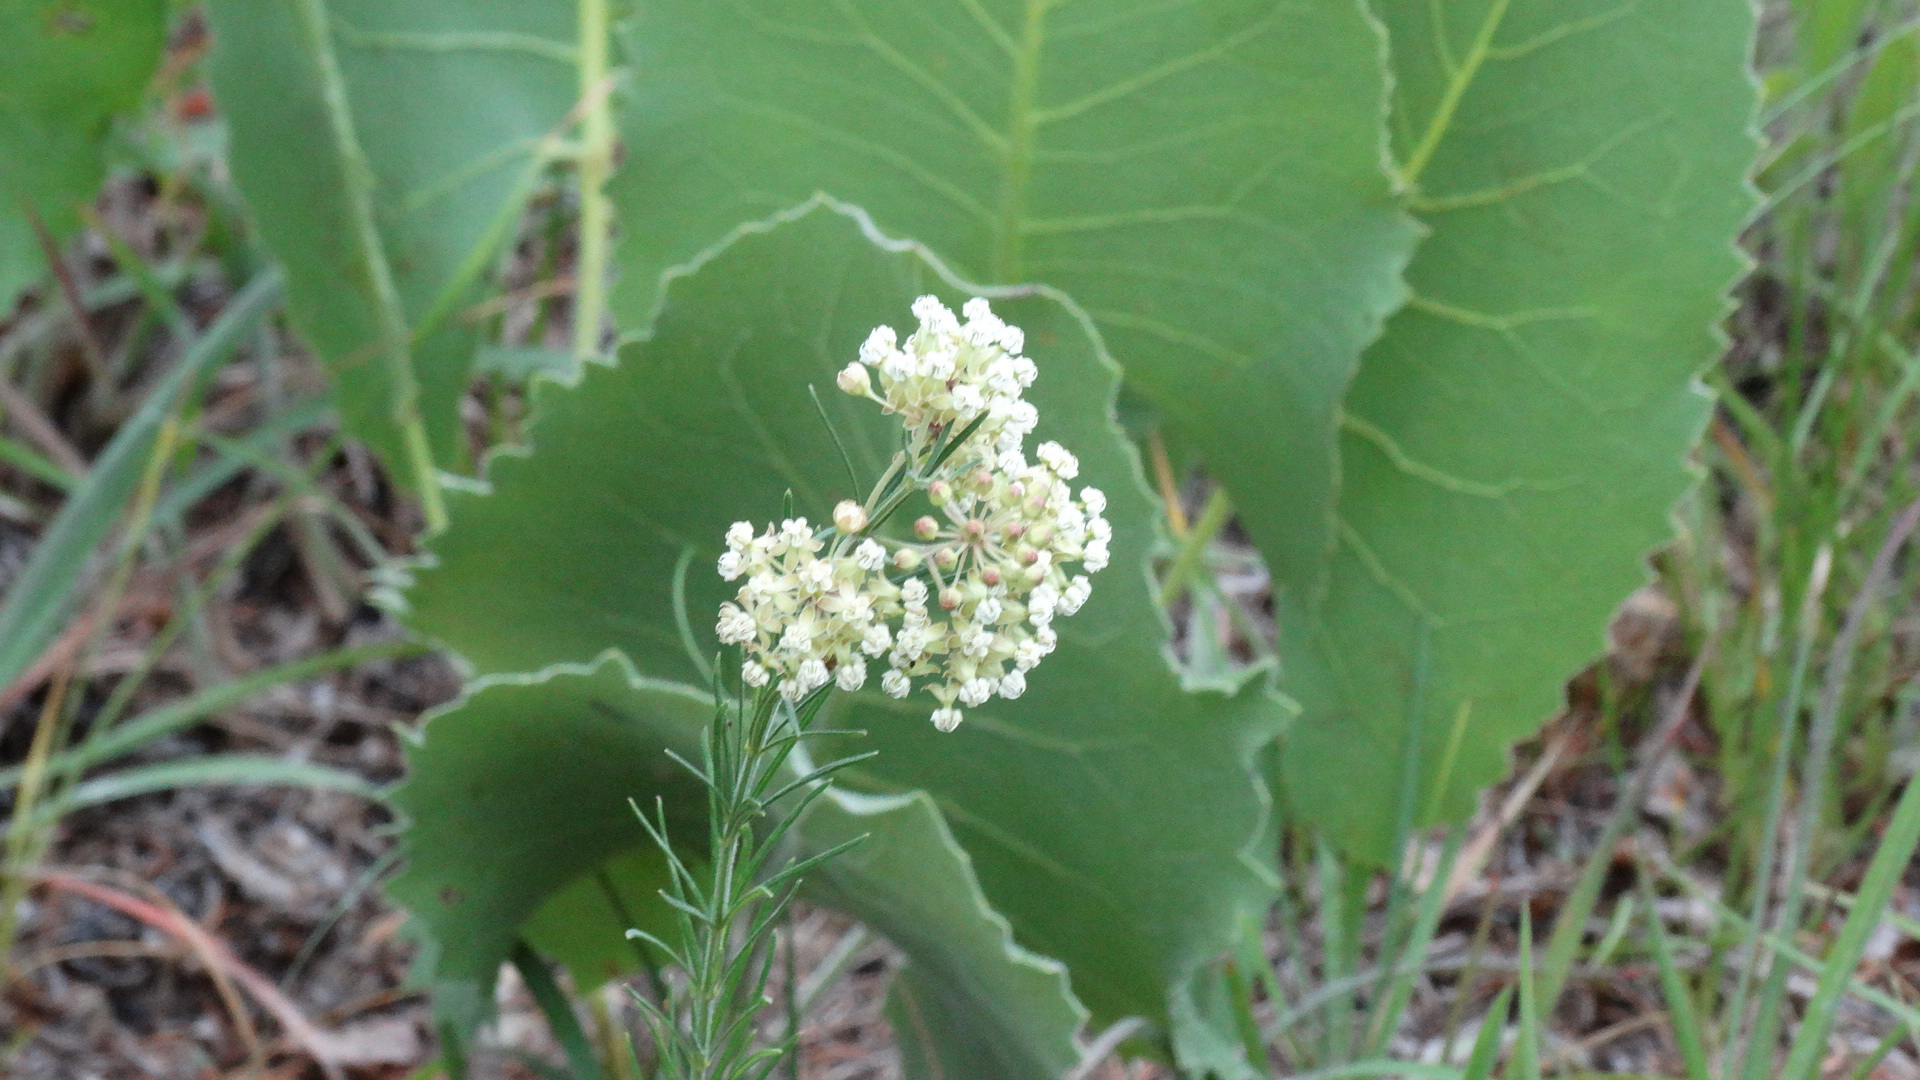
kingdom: Plantae
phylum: Tracheophyta
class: Magnoliopsida
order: Gentianales
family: Apocynaceae
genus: Asclepias
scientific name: Asclepias verticillata
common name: Eastern whorled milkweed
